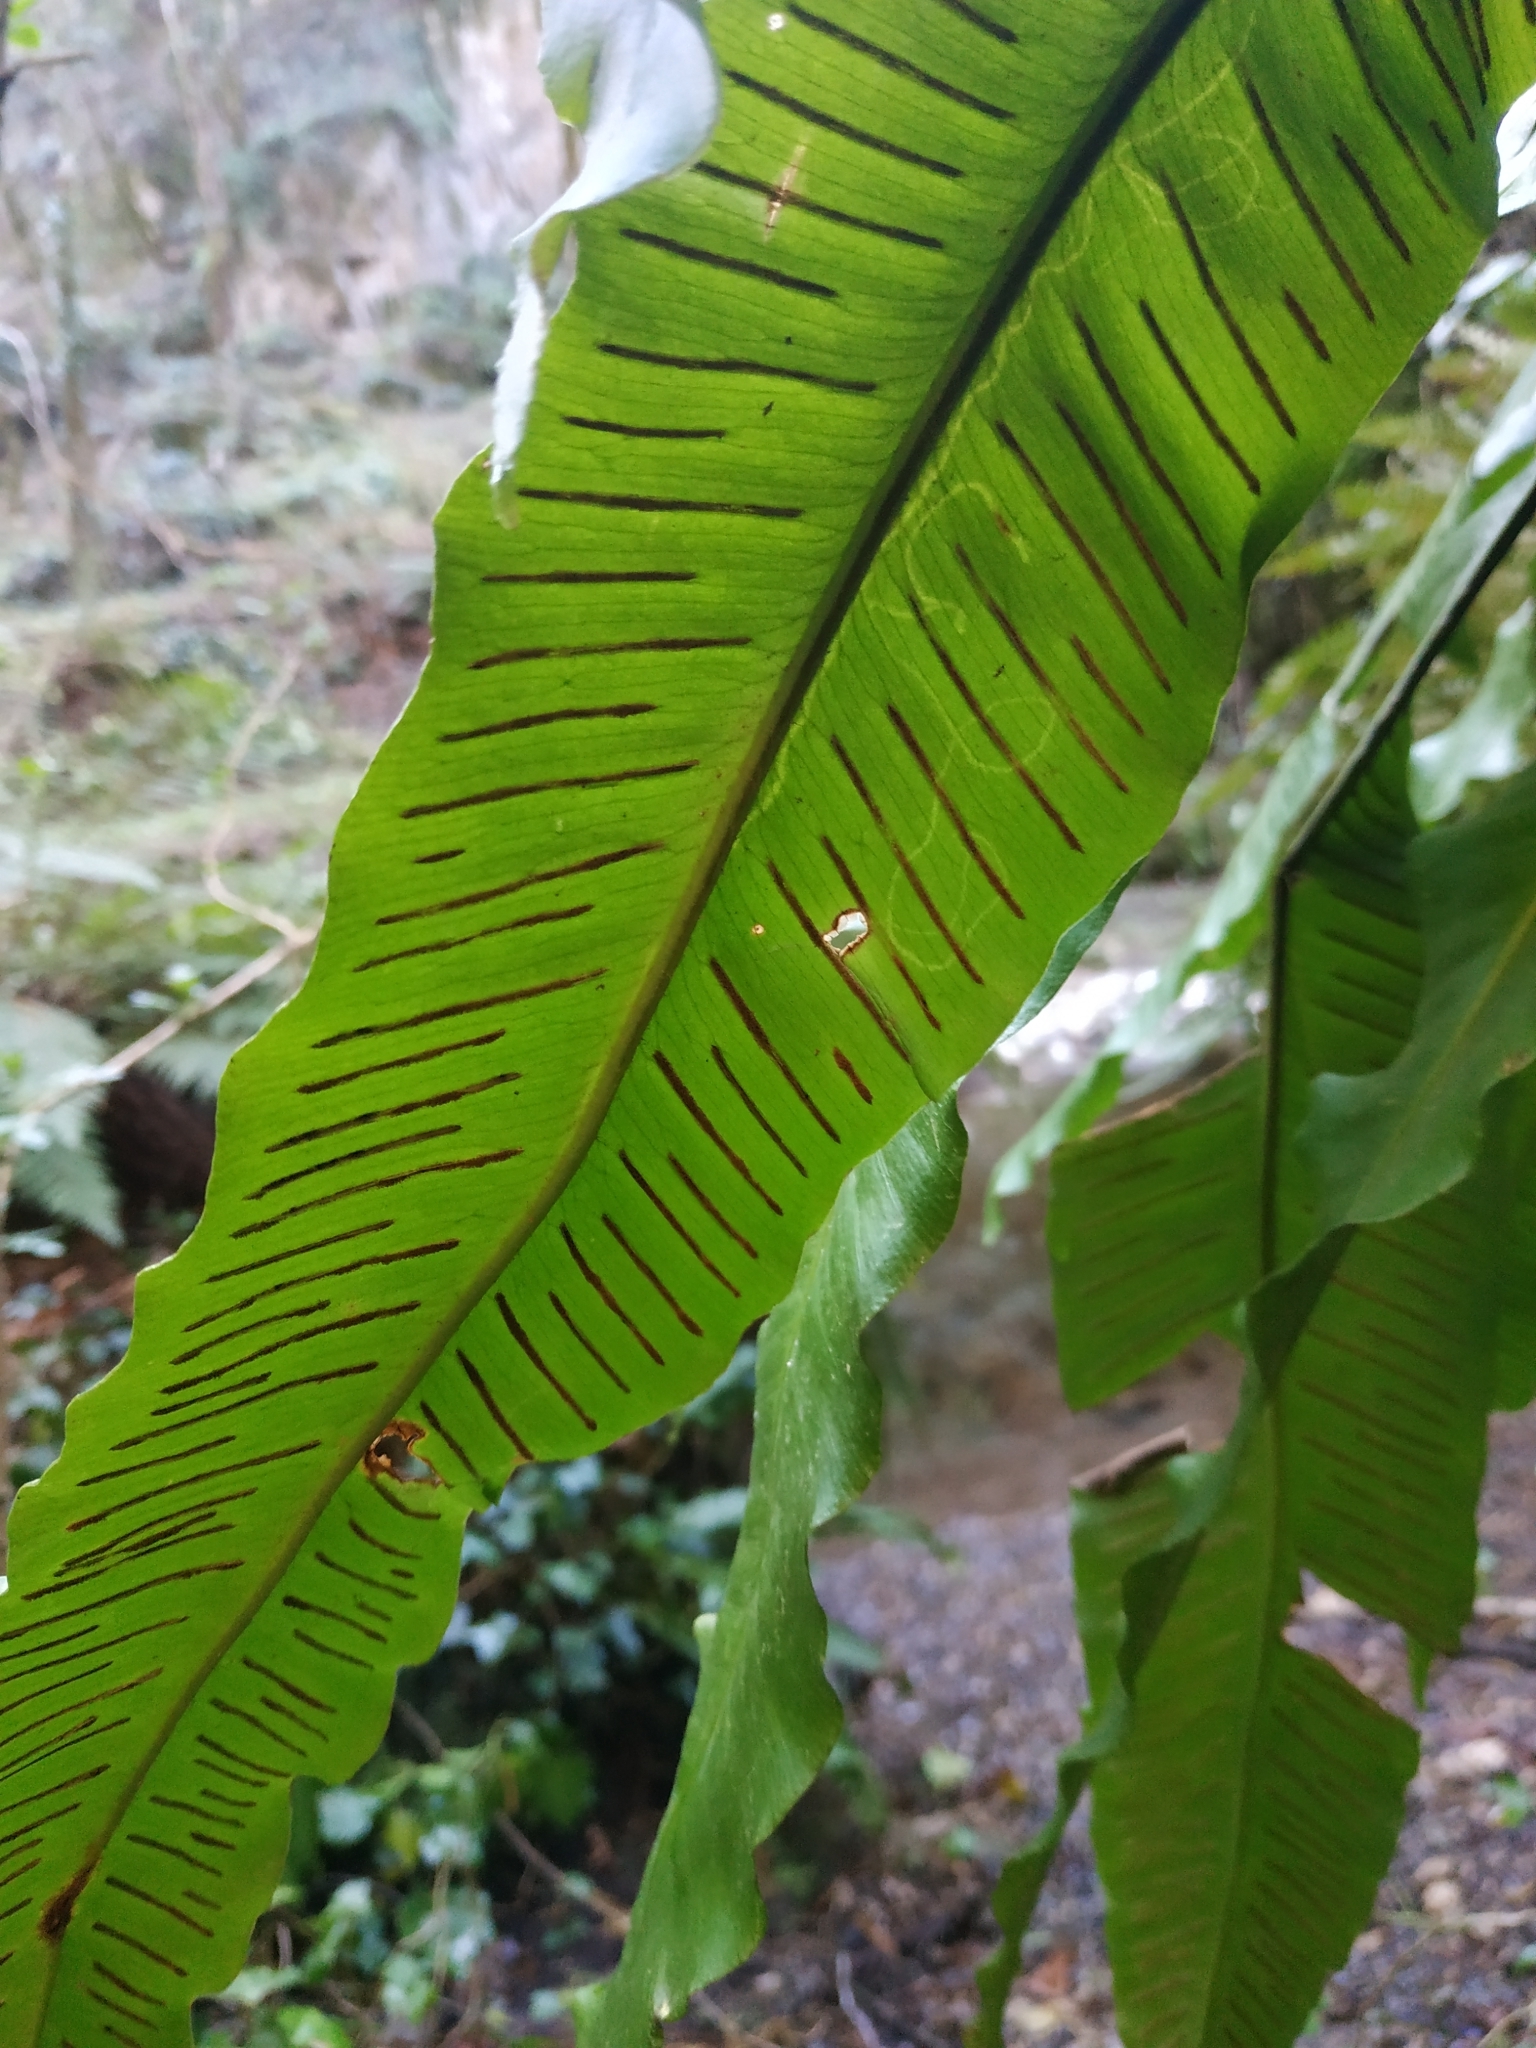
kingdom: Plantae
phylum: Tracheophyta
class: Polypodiopsida
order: Polypodiales
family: Aspleniaceae
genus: Asplenium
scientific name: Asplenium scolopendrium
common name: Hart's-tongue fern
